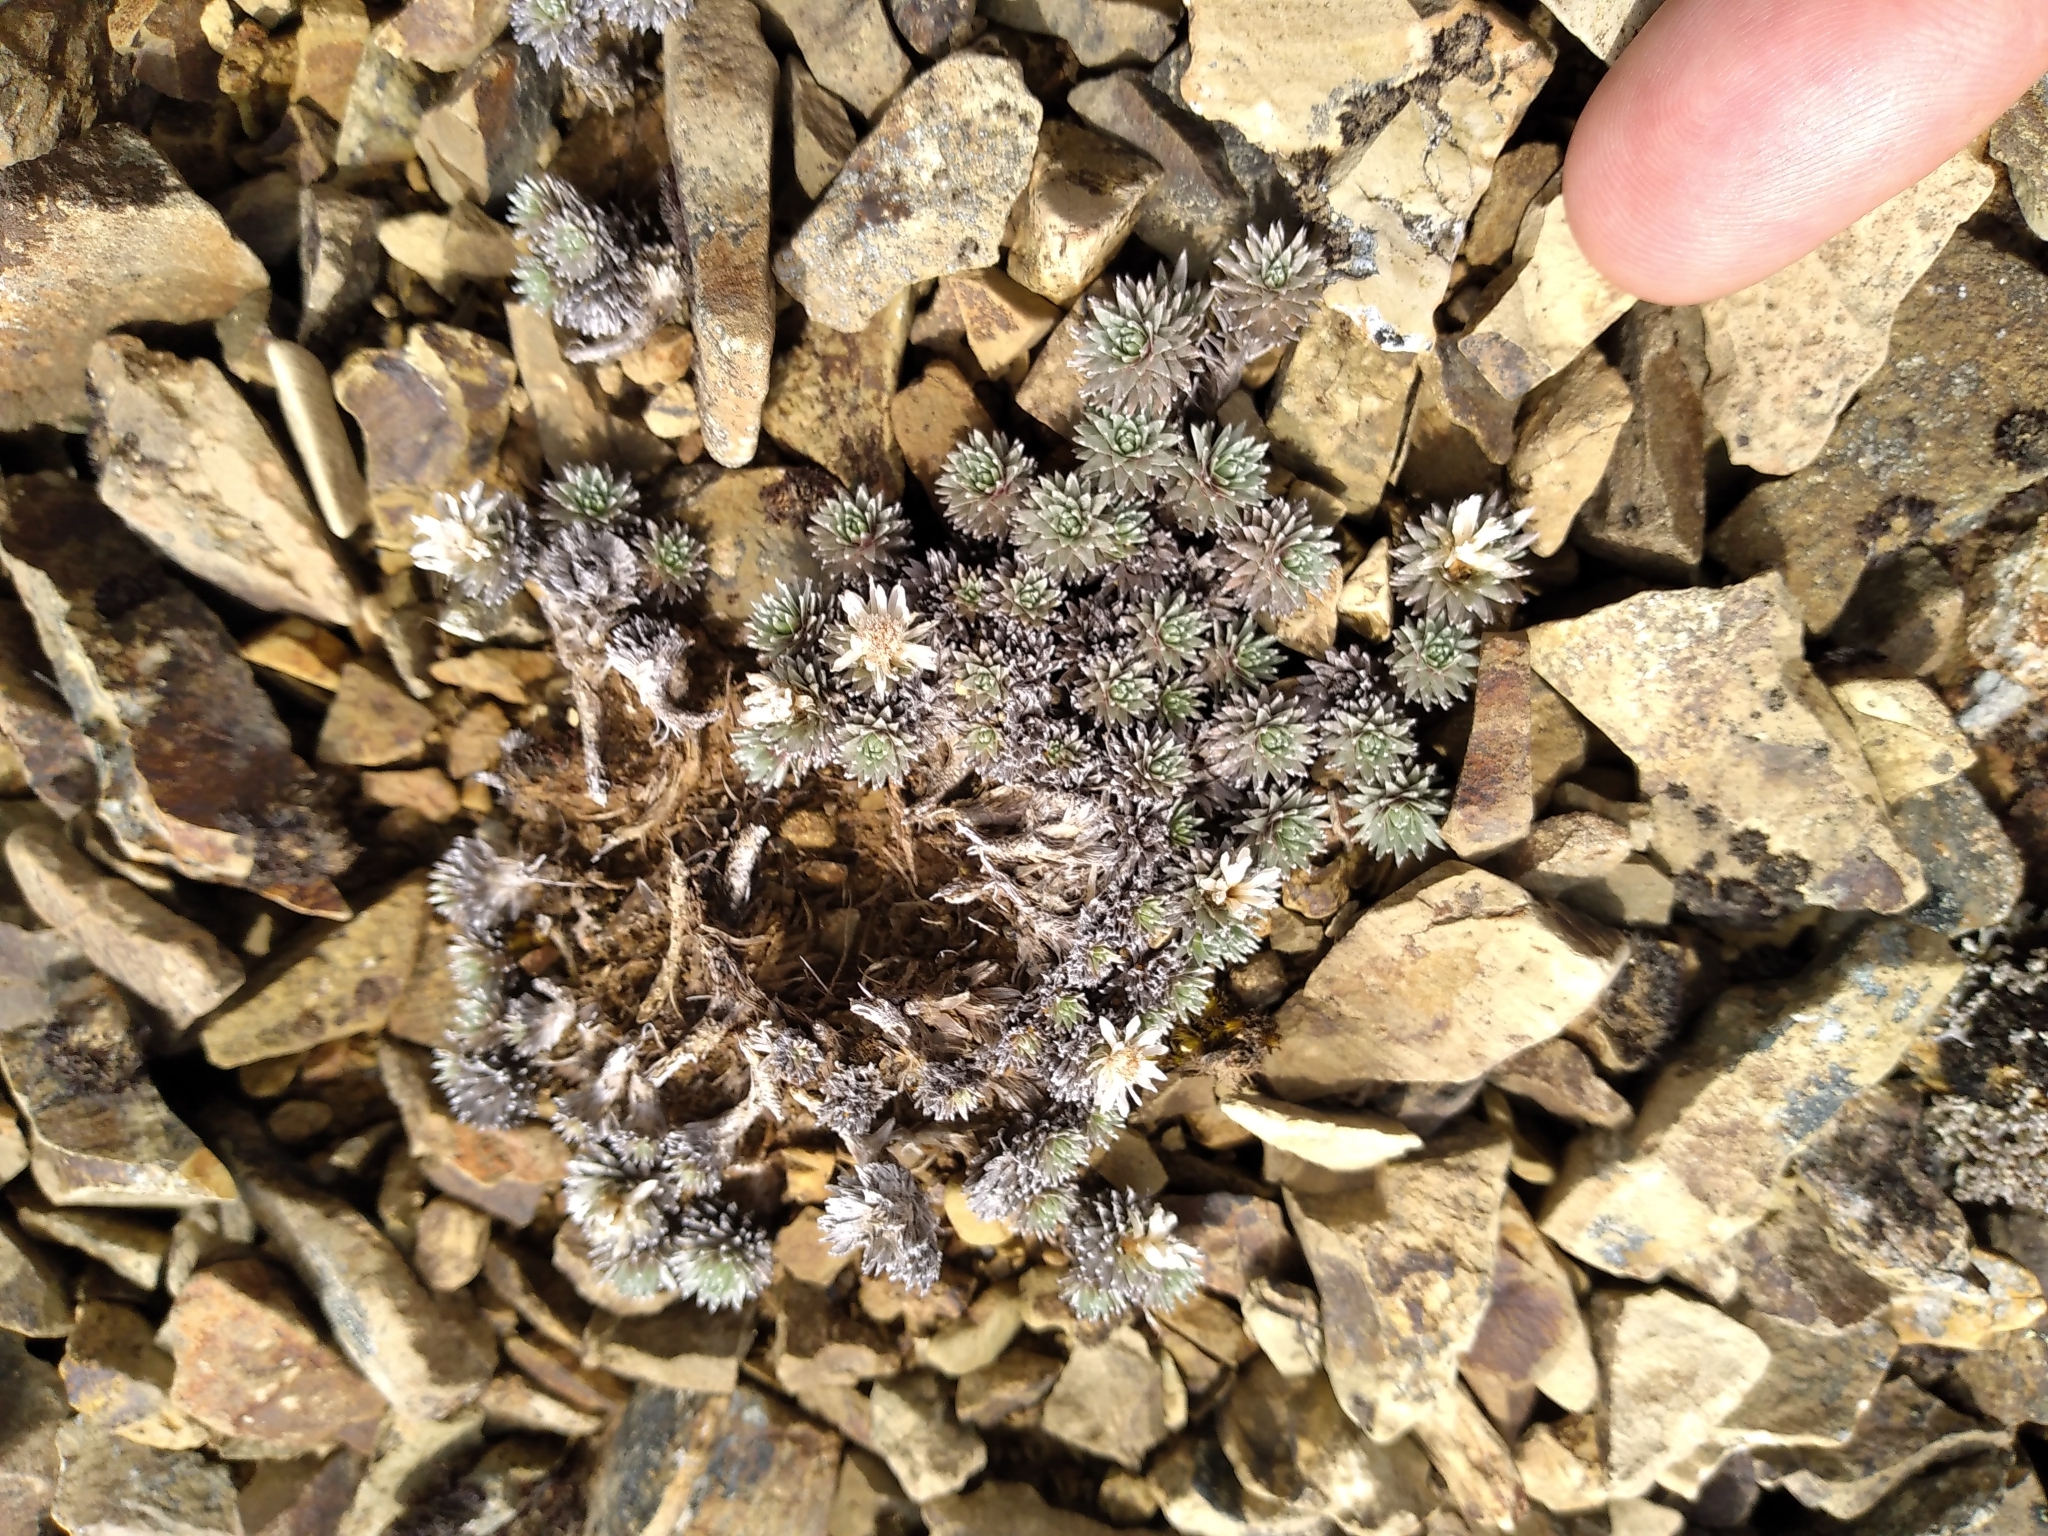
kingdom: Plantae
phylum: Tracheophyta
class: Magnoliopsida
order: Asterales
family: Asteraceae
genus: Raoulia
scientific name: Raoulia grandiflora
